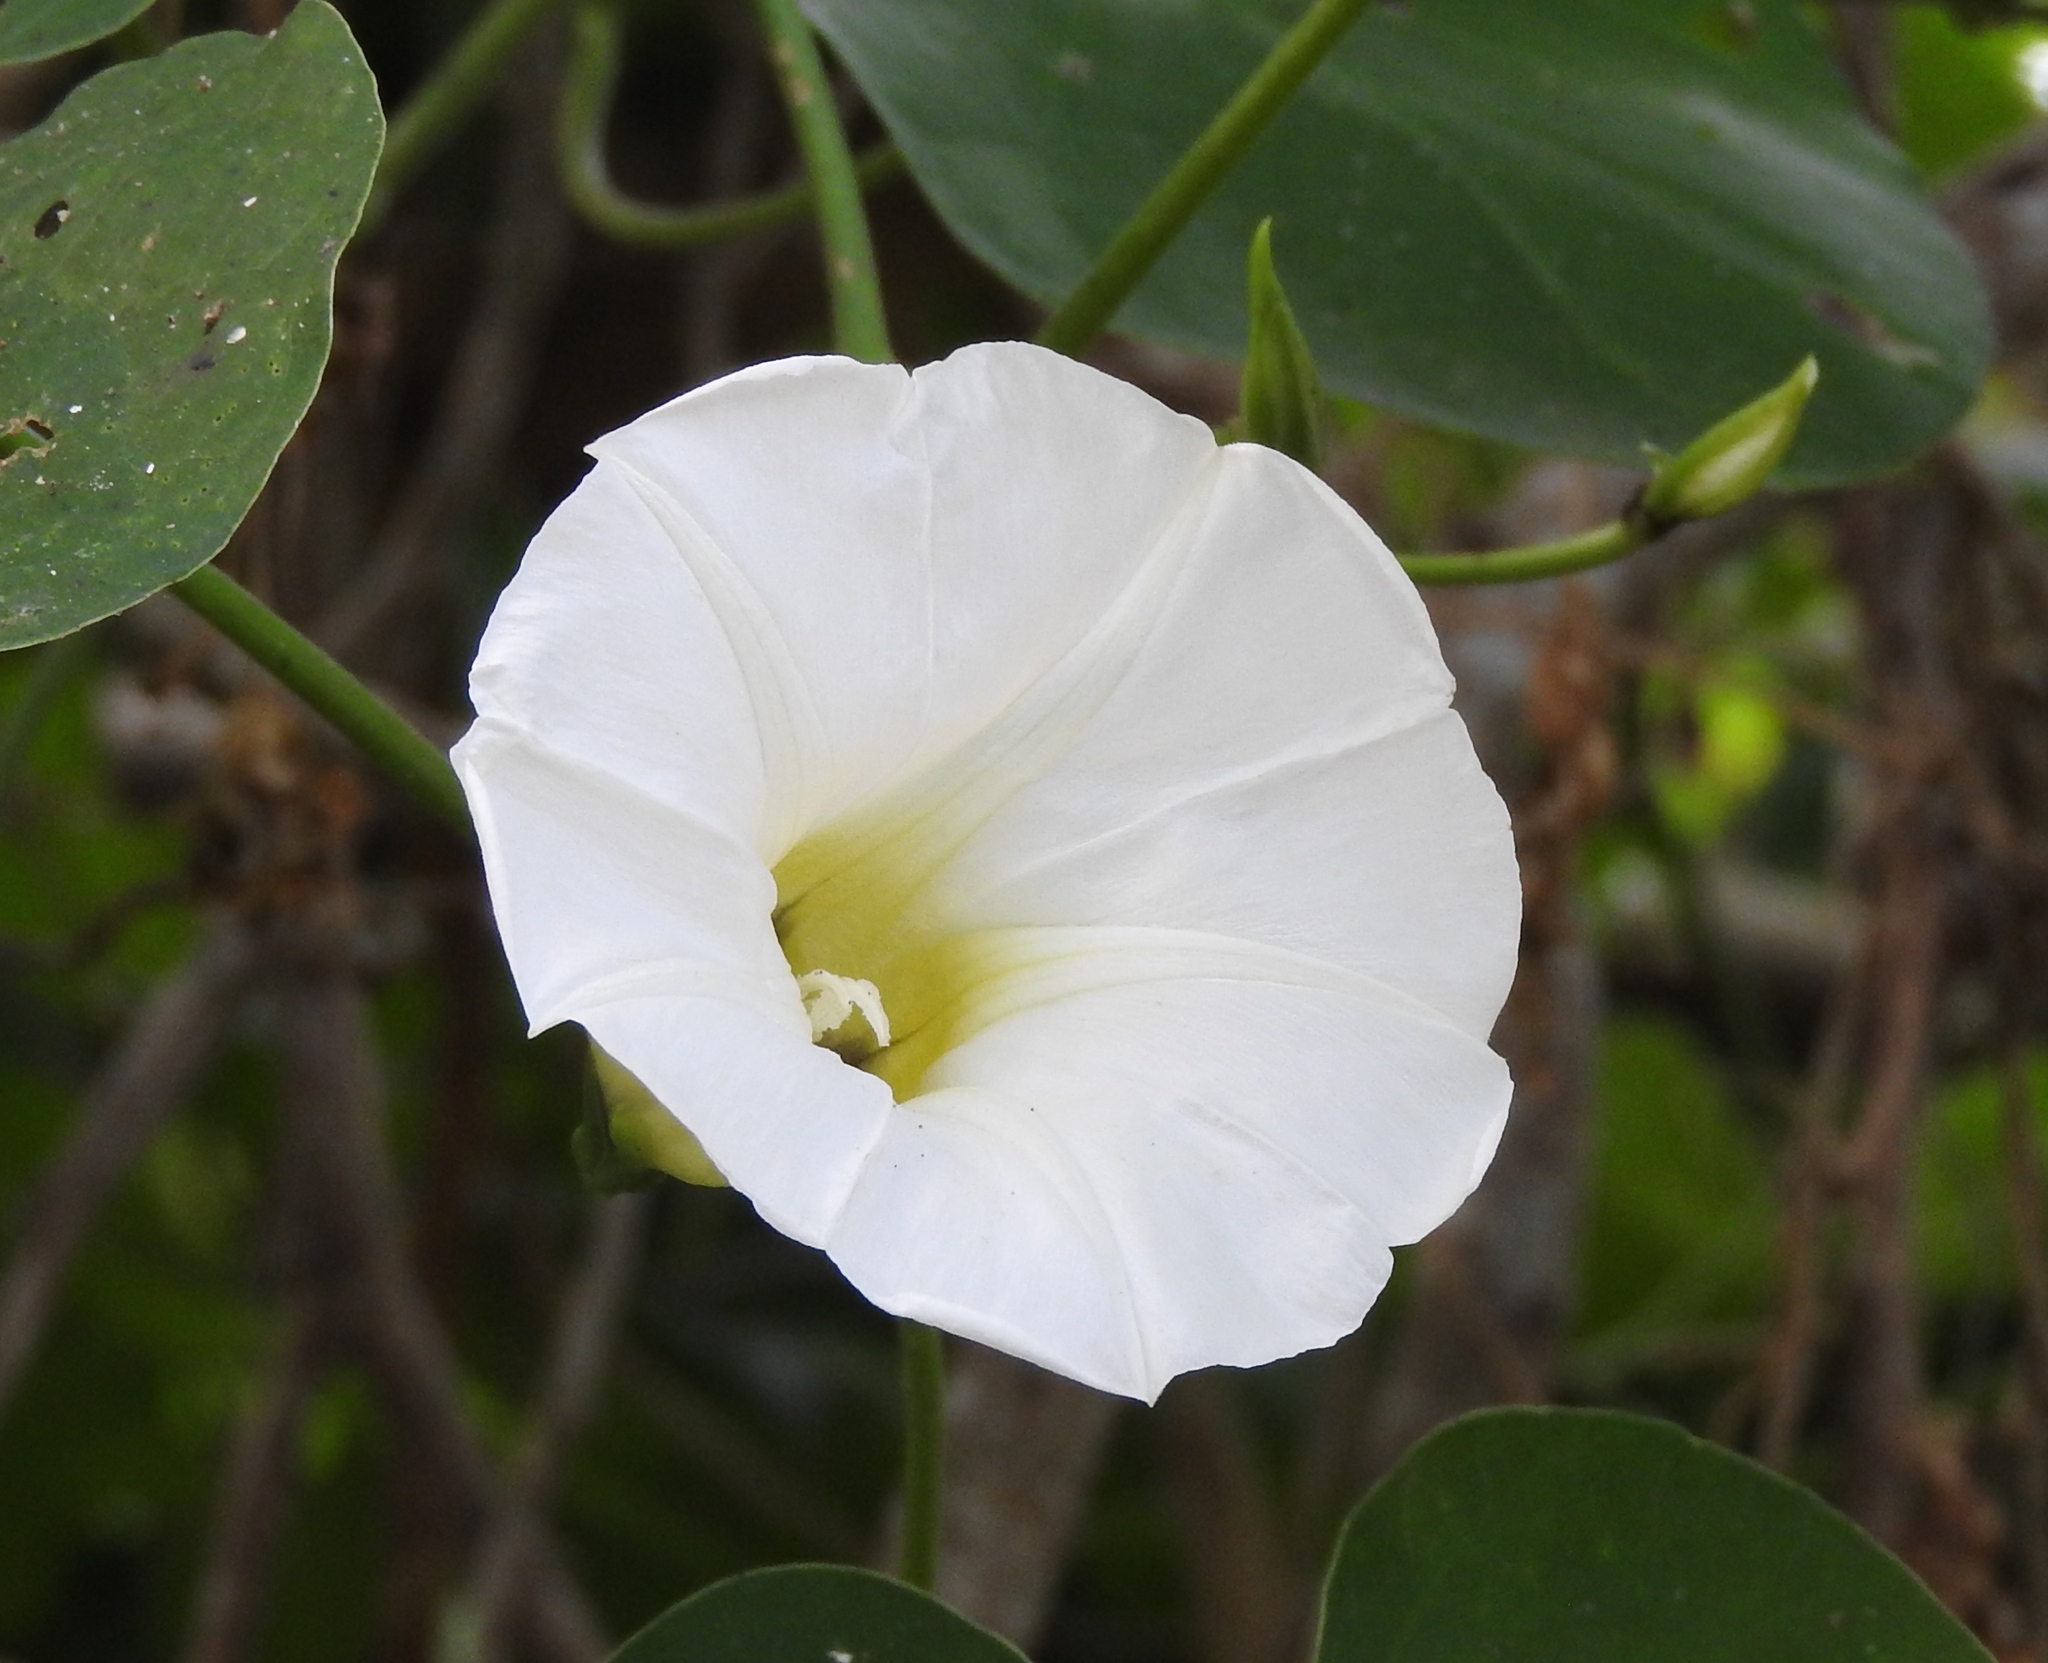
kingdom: Plantae
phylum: Tracheophyta
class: Magnoliopsida
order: Solanales
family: Convolvulaceae
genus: Ipomoea
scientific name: Ipomoea corymbosa
